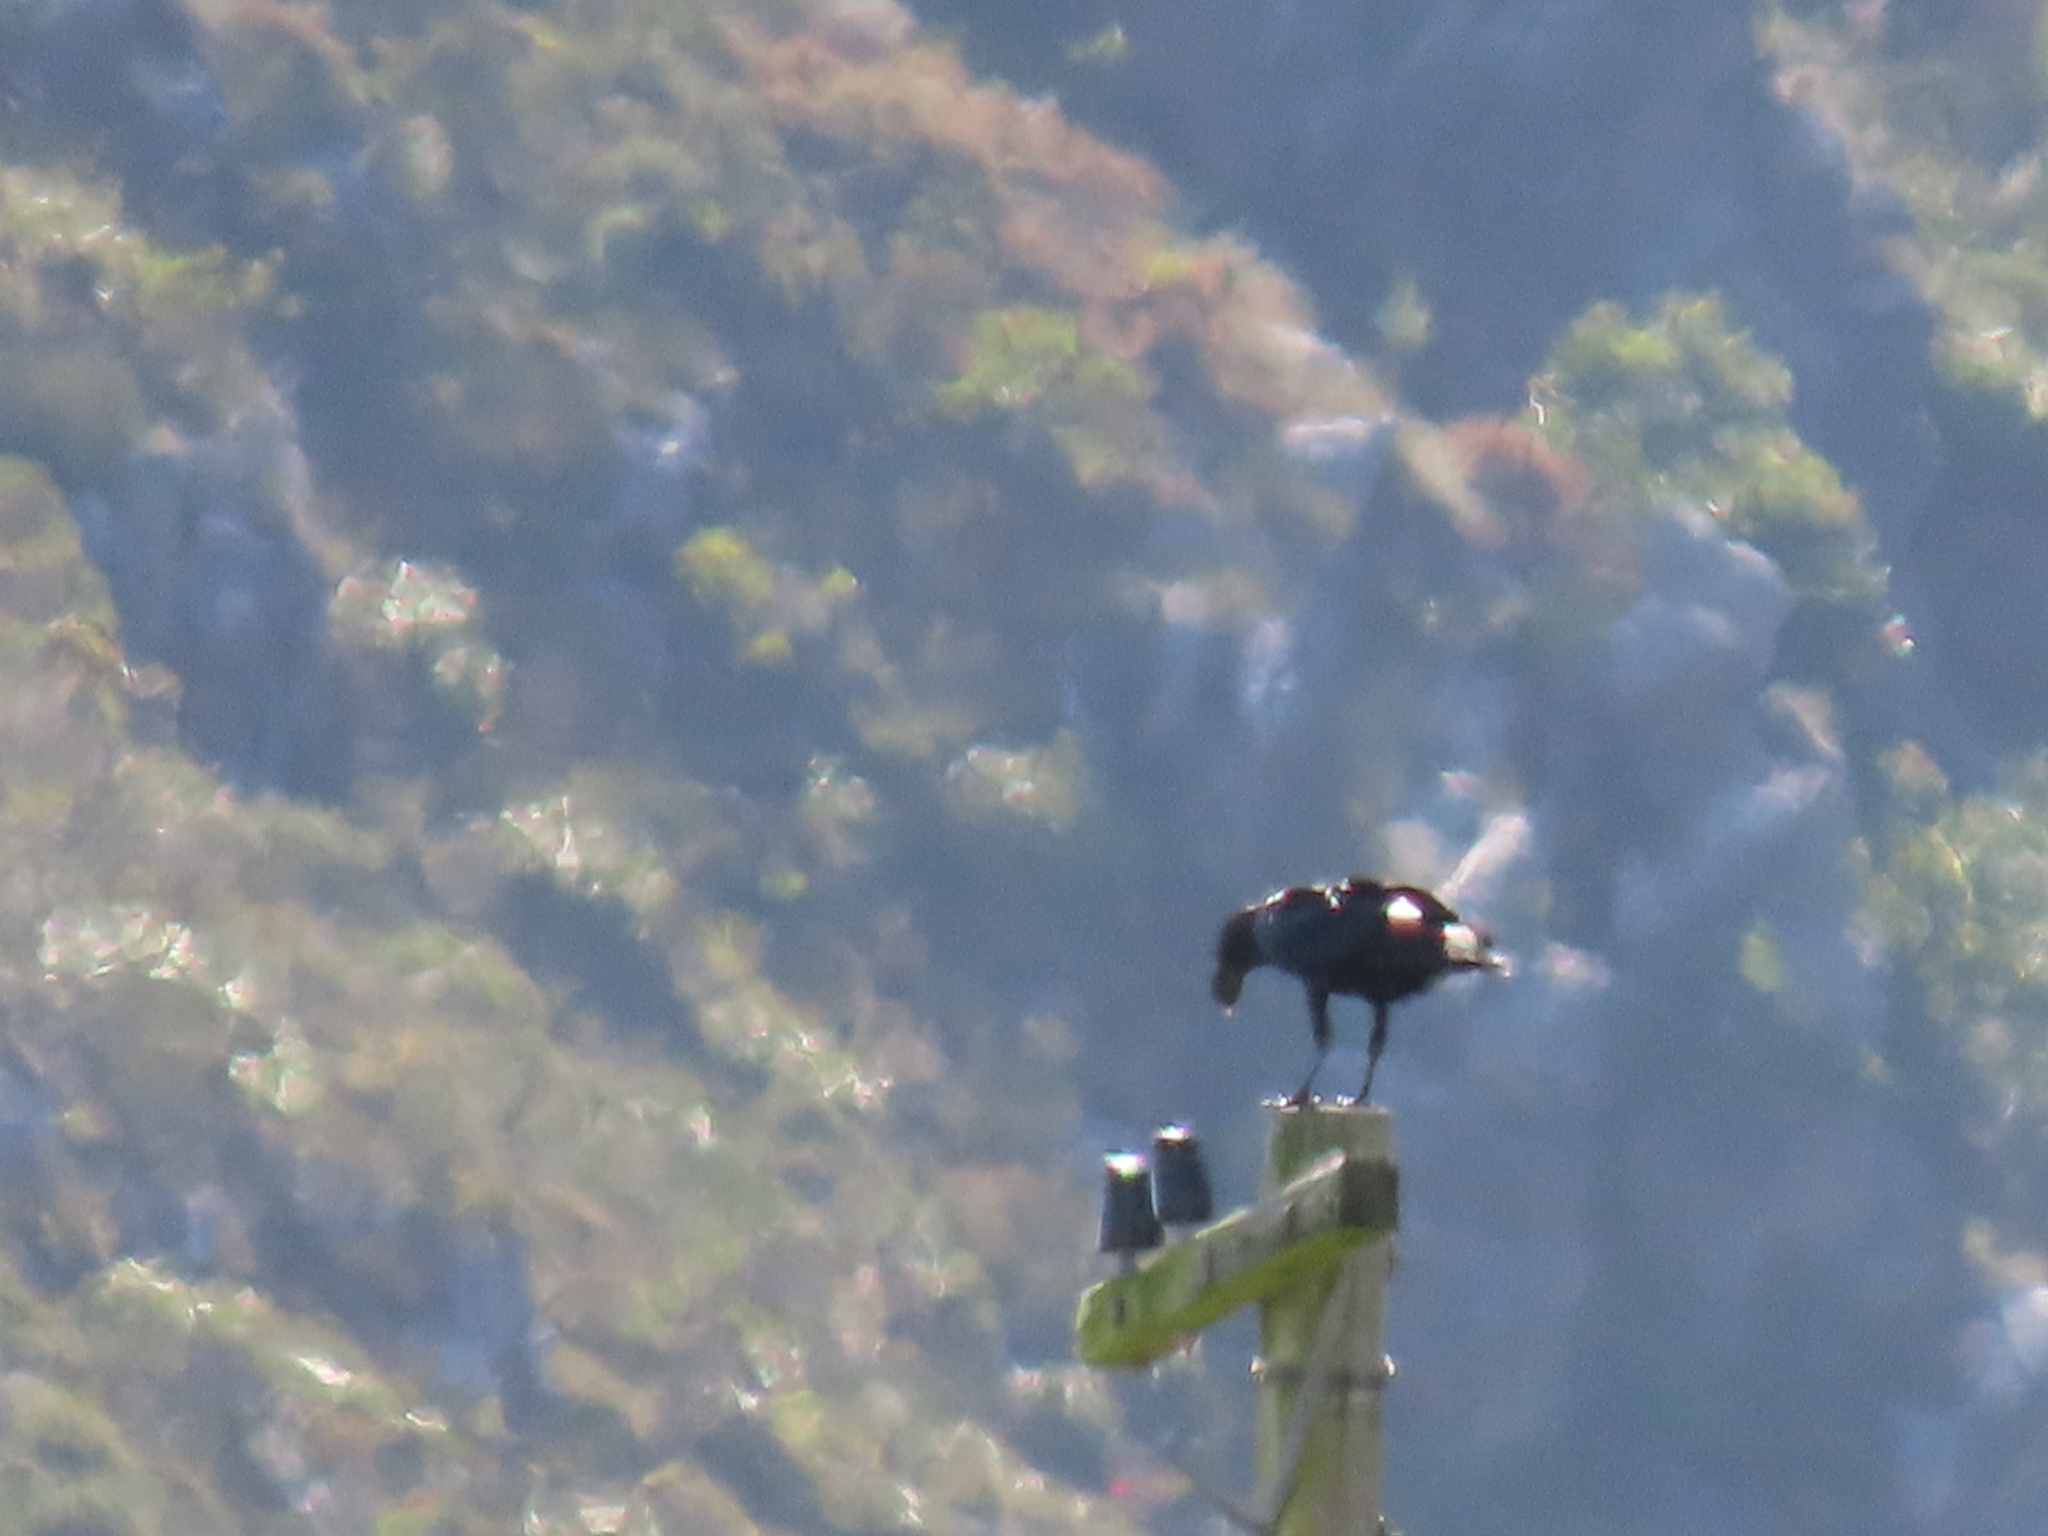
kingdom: Animalia
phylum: Chordata
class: Aves
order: Passeriformes
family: Corvidae
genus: Corvus
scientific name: Corvus albicollis
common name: White-necked raven
